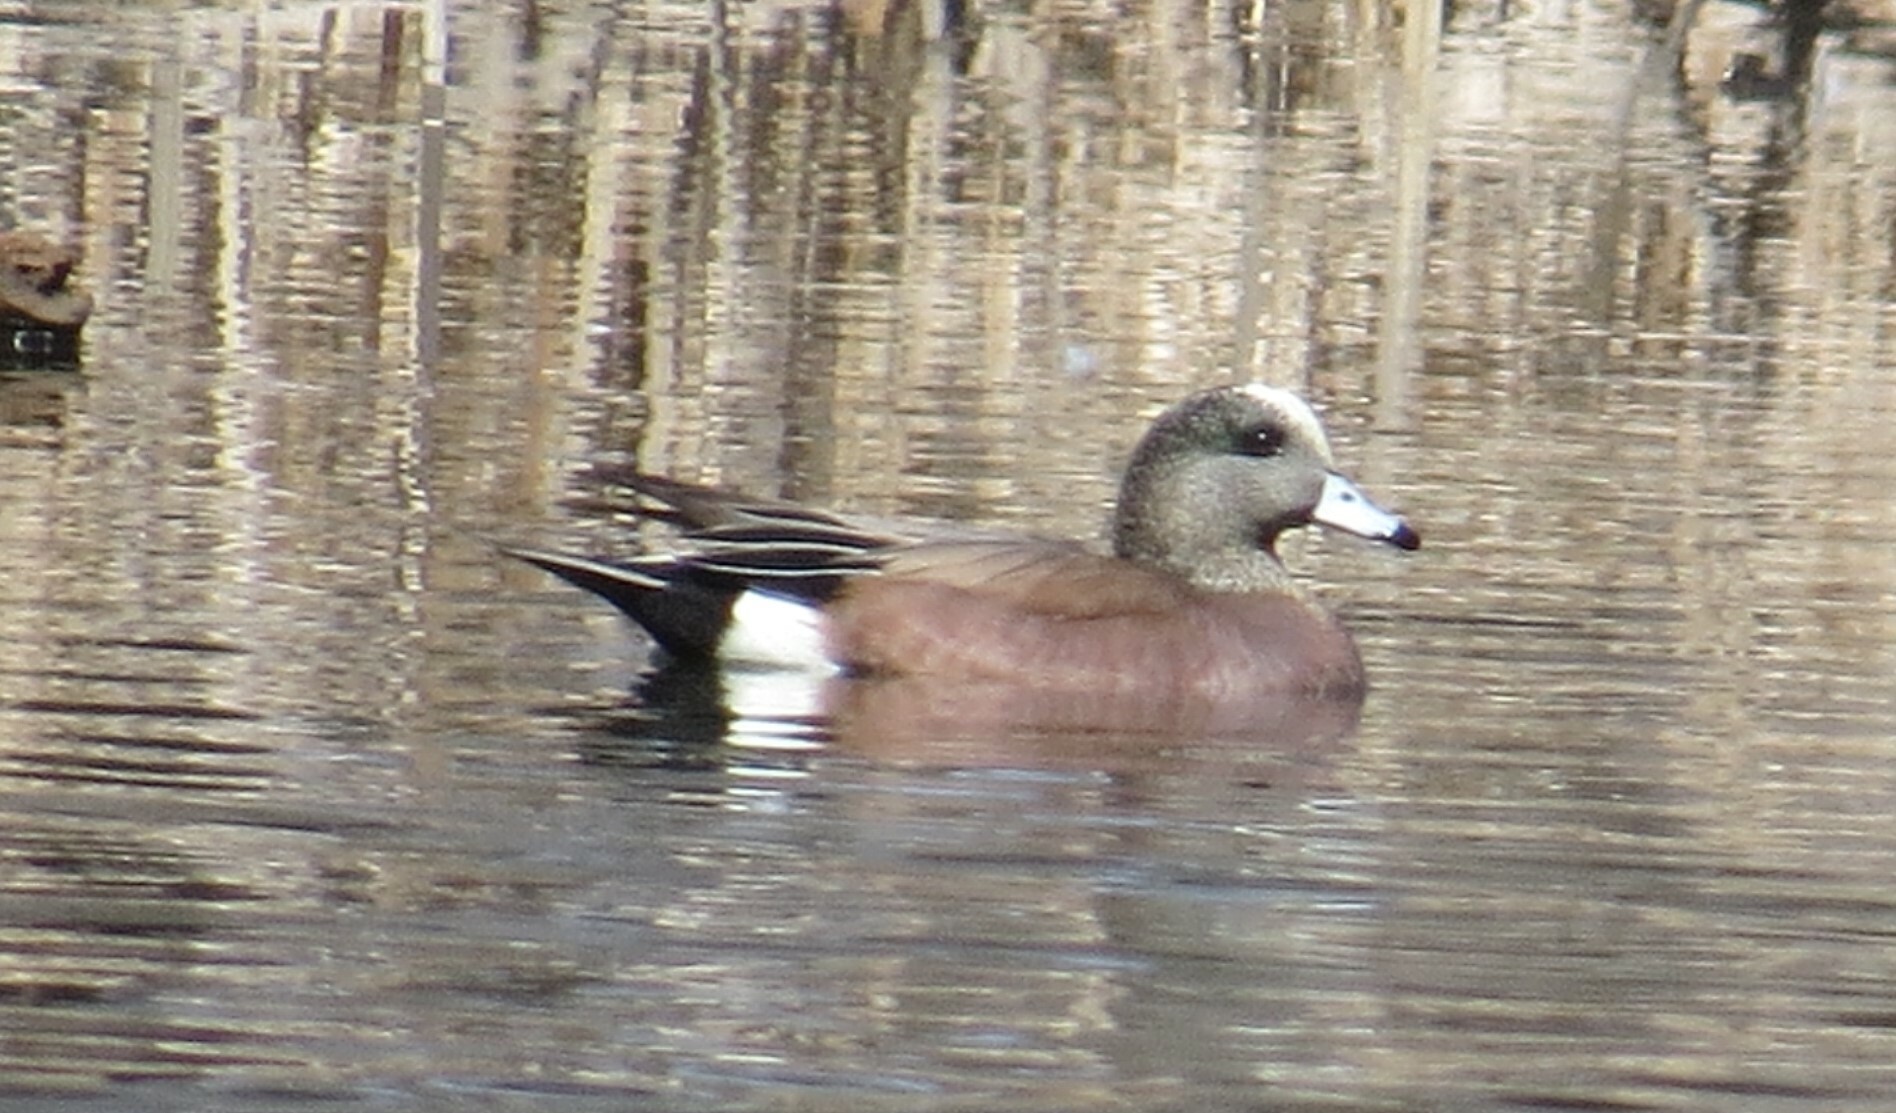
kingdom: Animalia
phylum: Chordata
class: Aves
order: Anseriformes
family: Anatidae
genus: Mareca
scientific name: Mareca americana
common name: American wigeon
